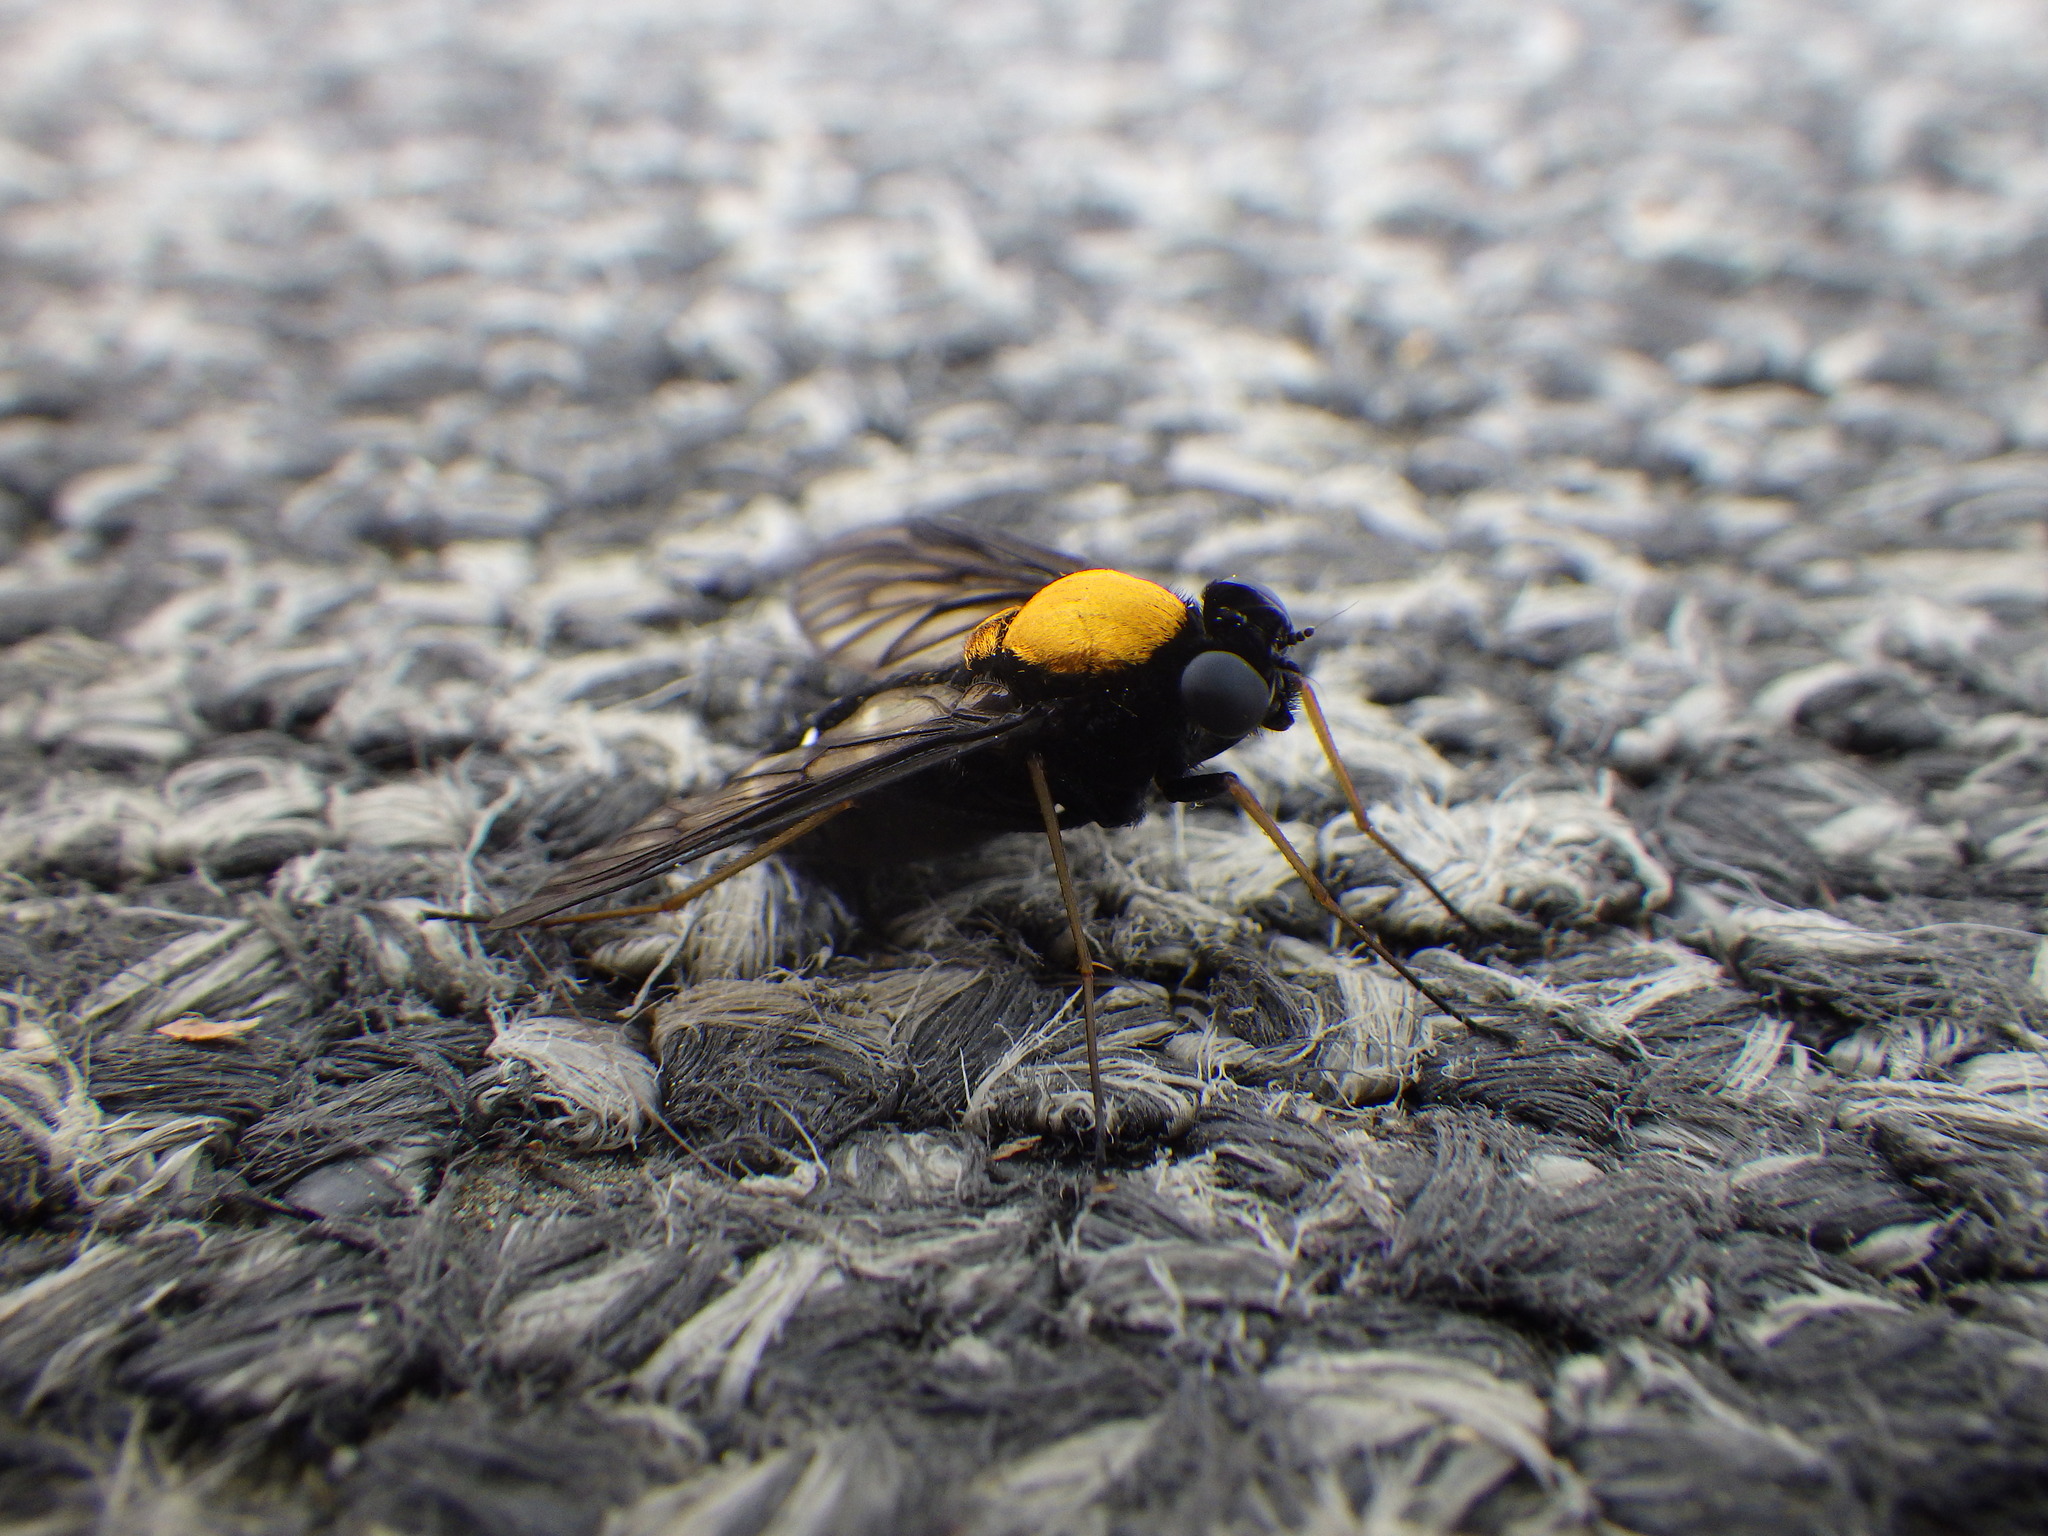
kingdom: Animalia
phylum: Arthropoda
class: Insecta
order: Diptera
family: Rhagionidae
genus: Chrysopilus
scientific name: Chrysopilus thoracicus
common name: Golden-backed snipe fly
